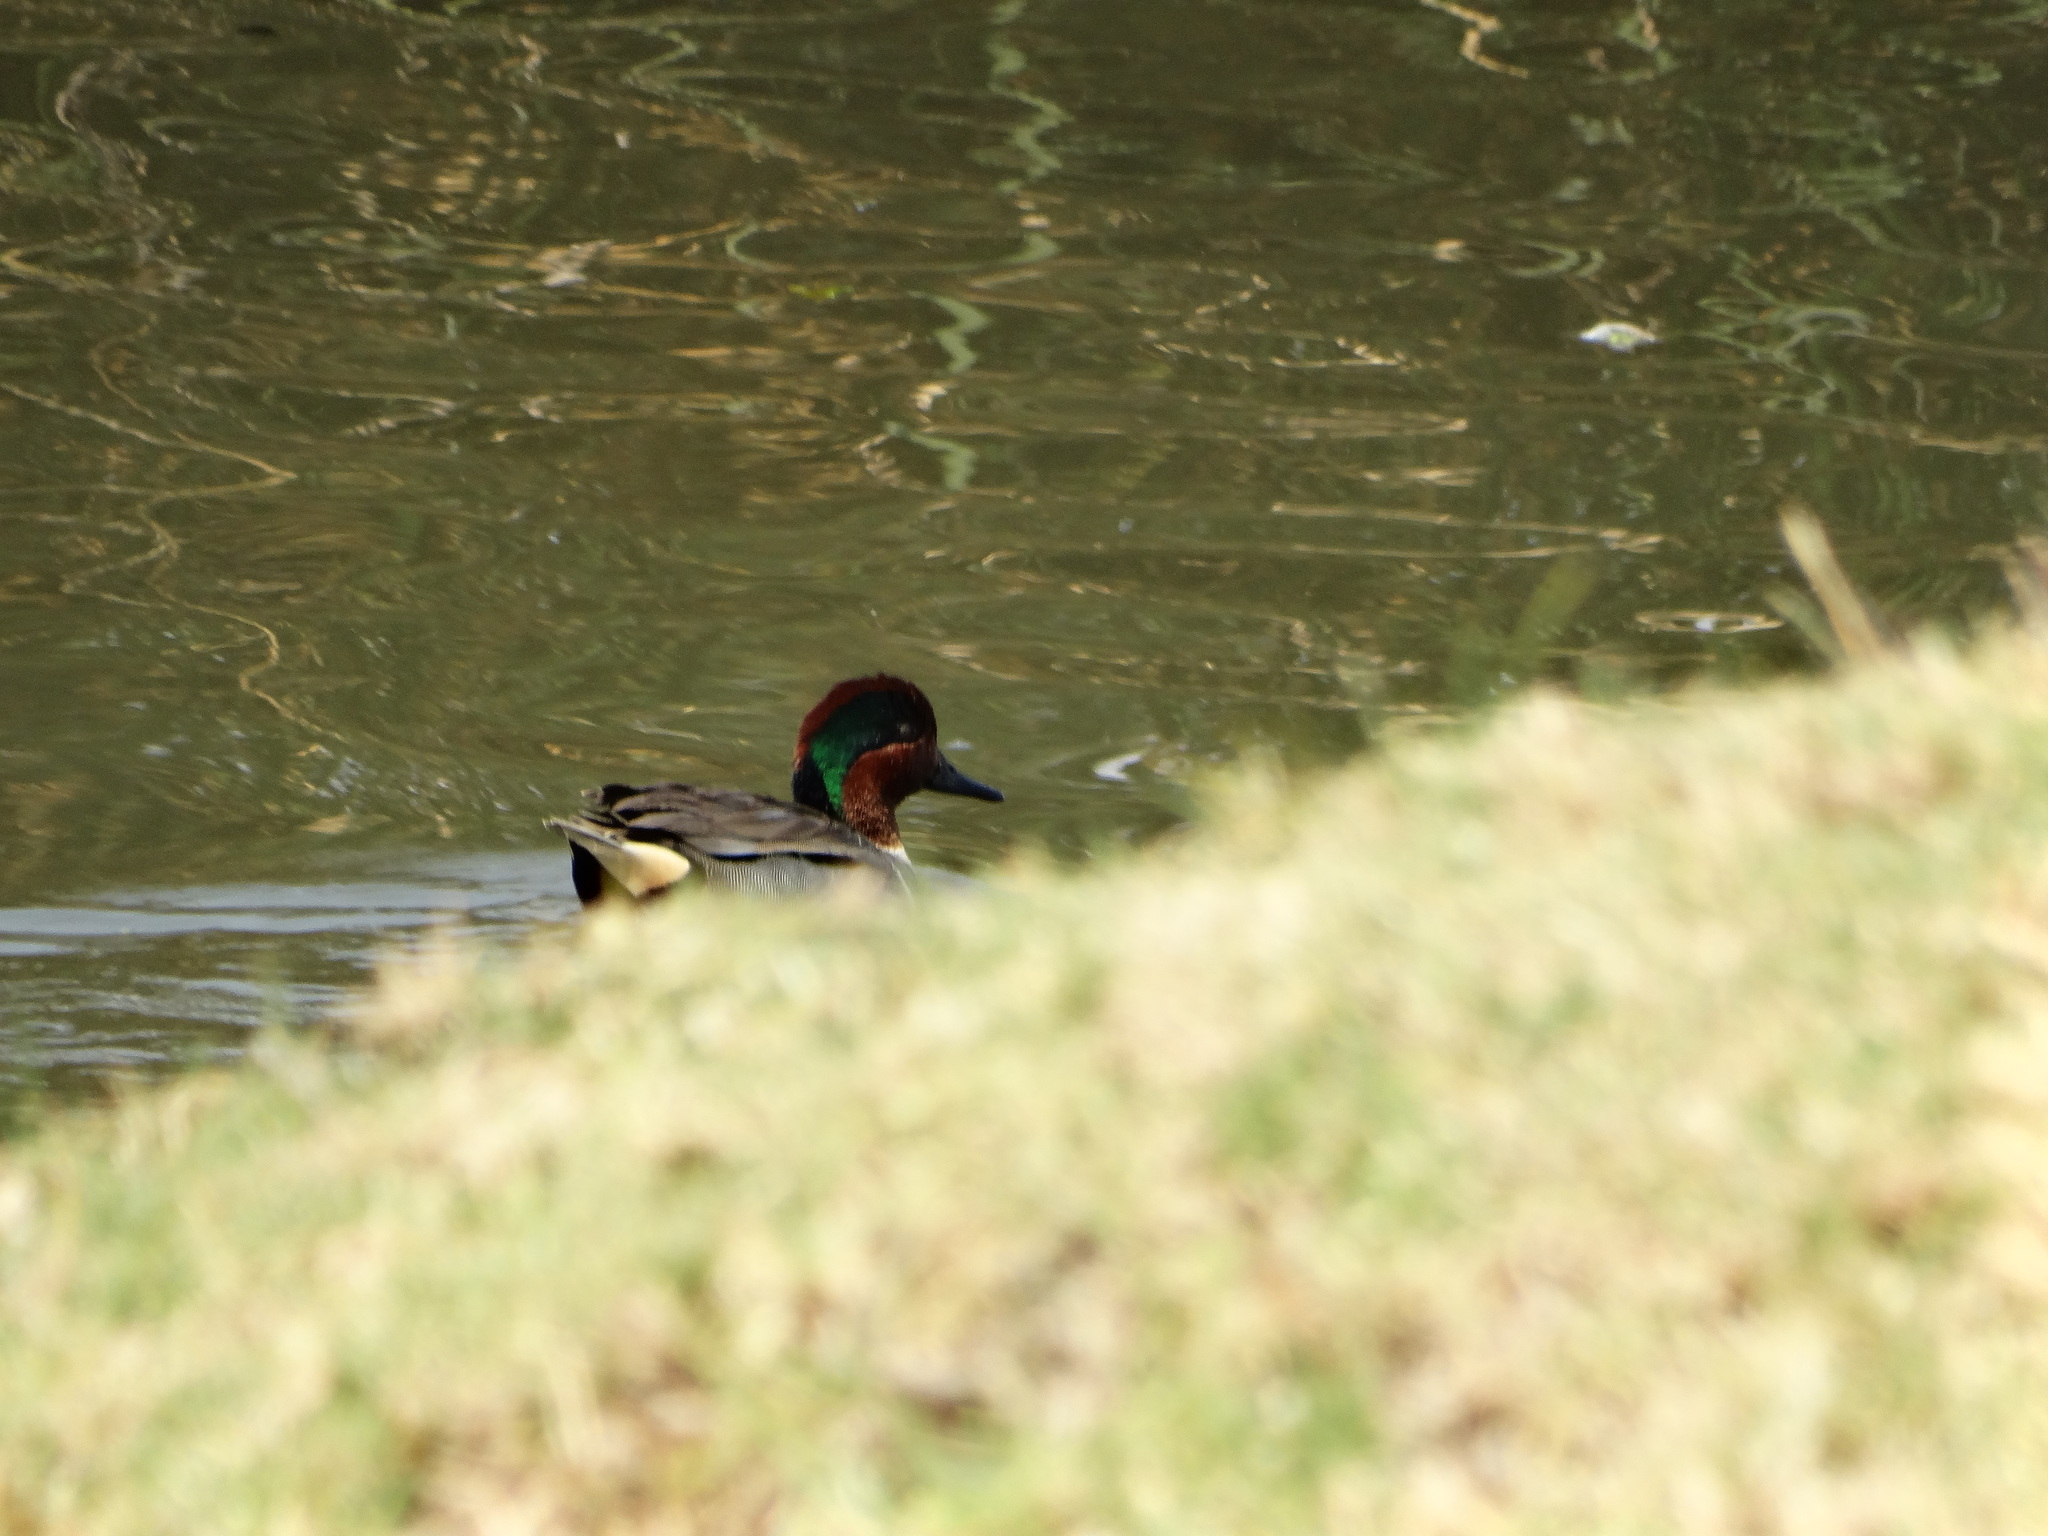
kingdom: Animalia
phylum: Chordata
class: Aves
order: Anseriformes
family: Anatidae
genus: Anas
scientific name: Anas crecca
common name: Eurasian teal
